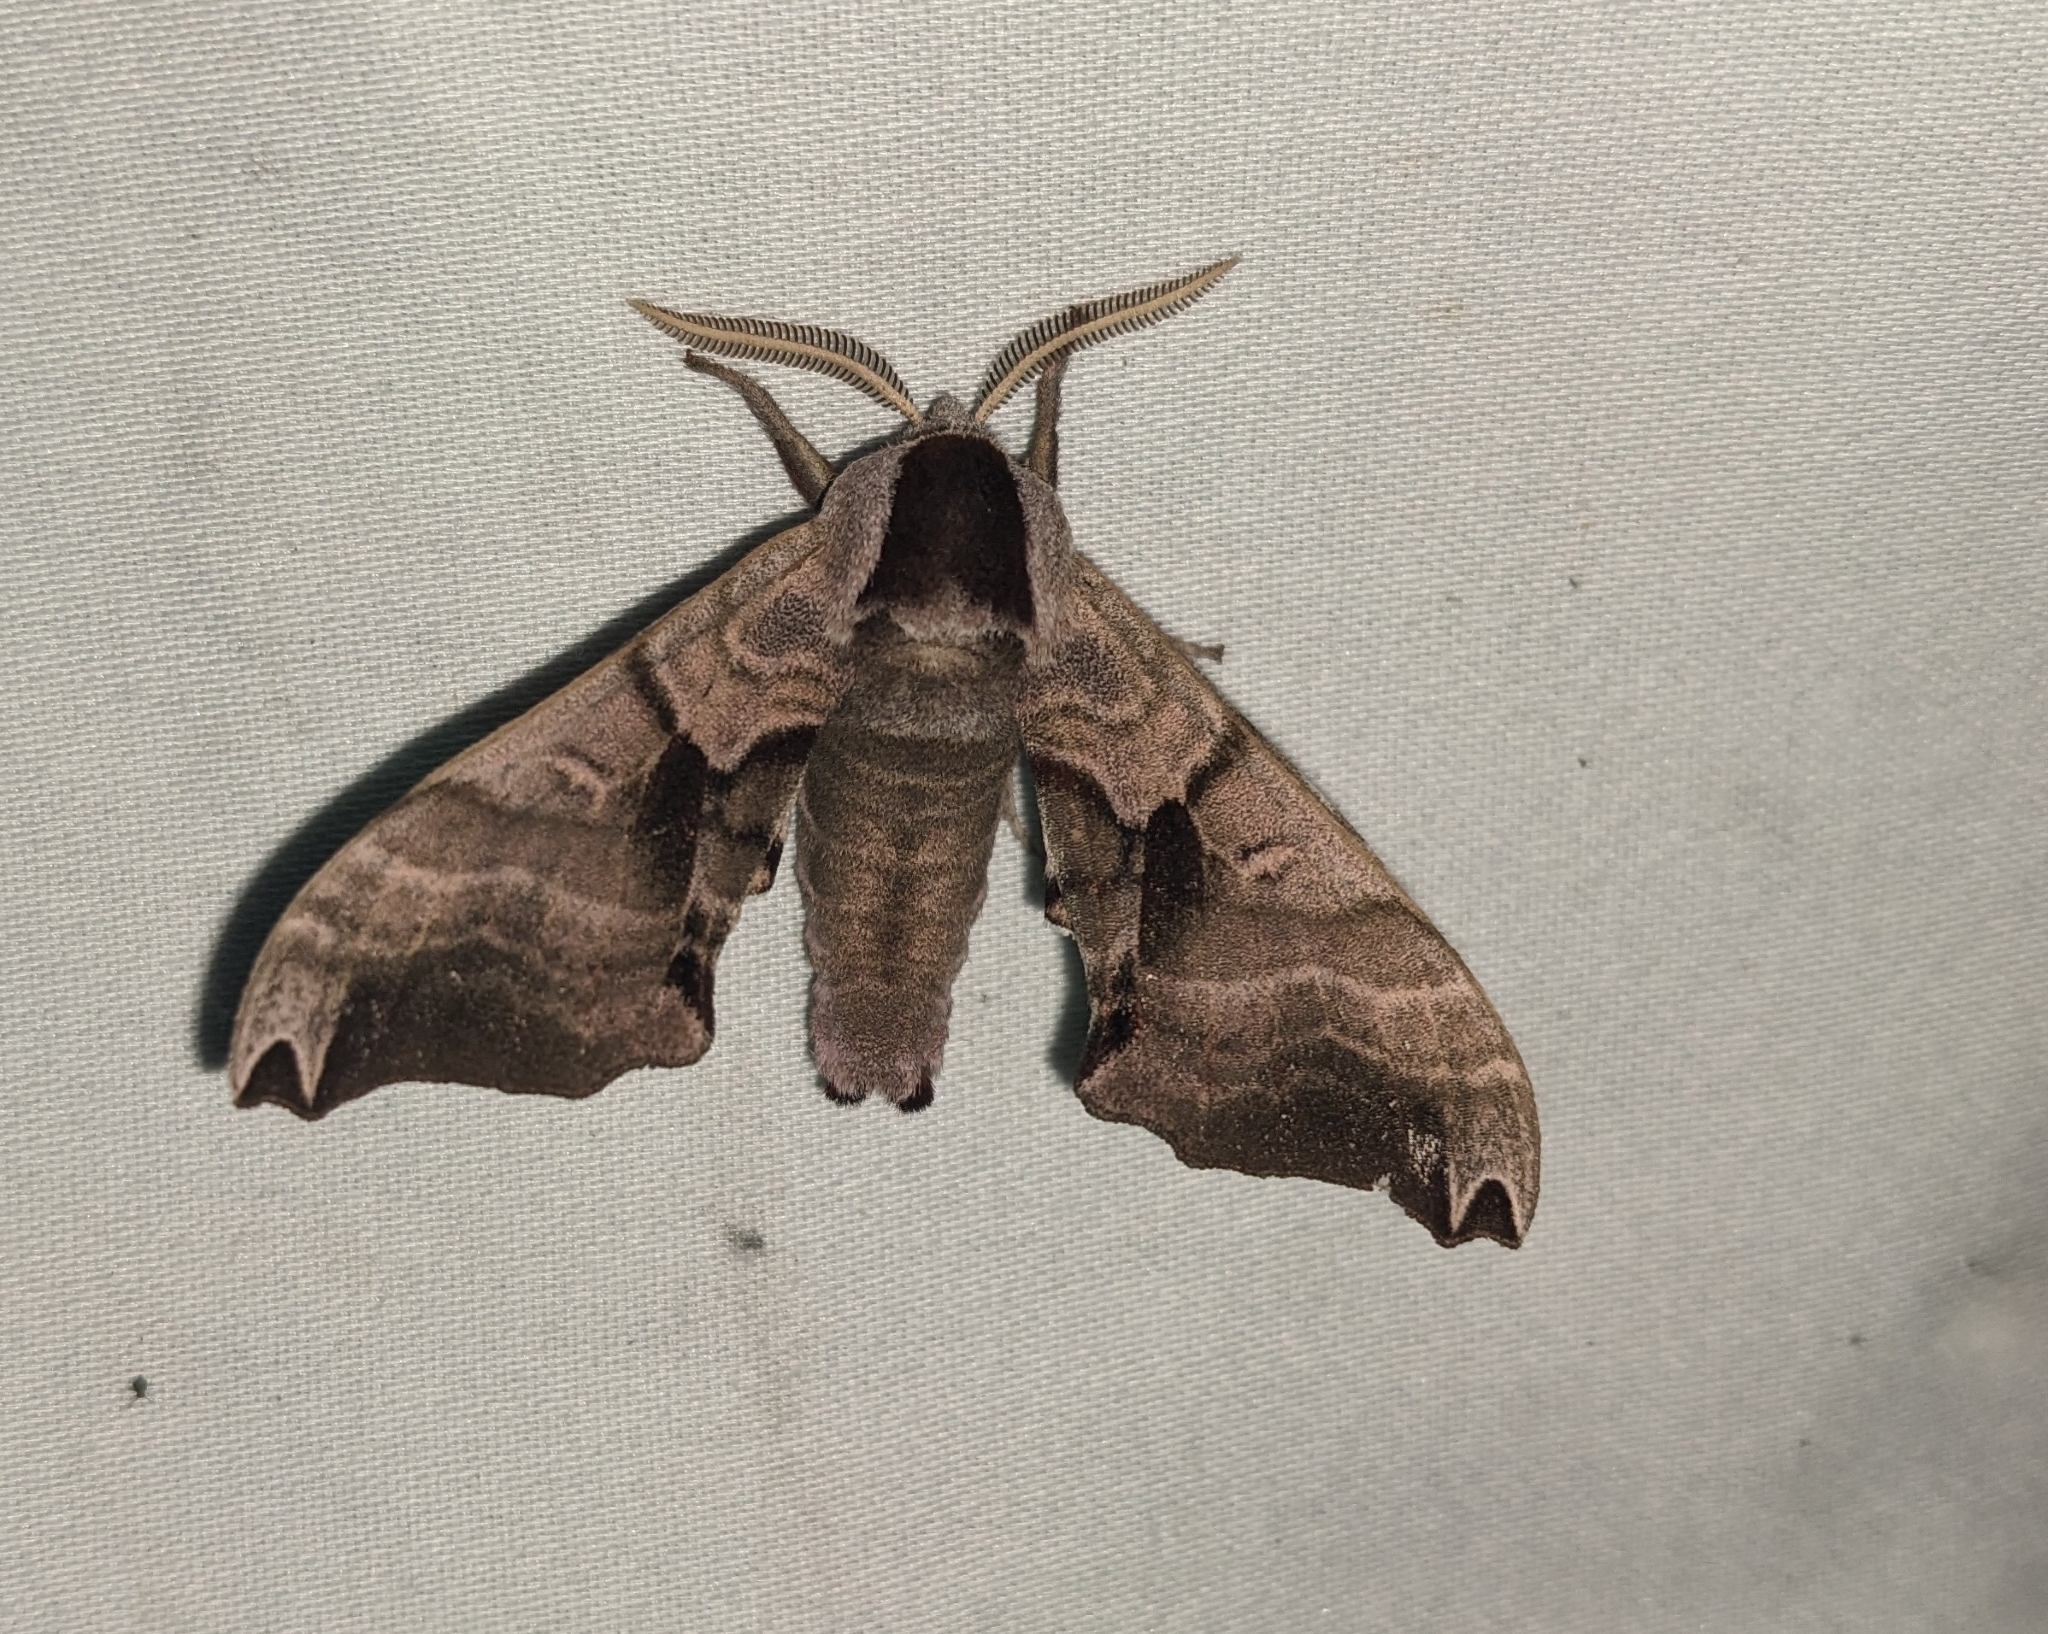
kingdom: Animalia
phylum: Arthropoda
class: Insecta
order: Lepidoptera
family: Sphingidae
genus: Smerinthus
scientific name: Smerinthus jamaicensis
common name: Twin spotted sphinx
